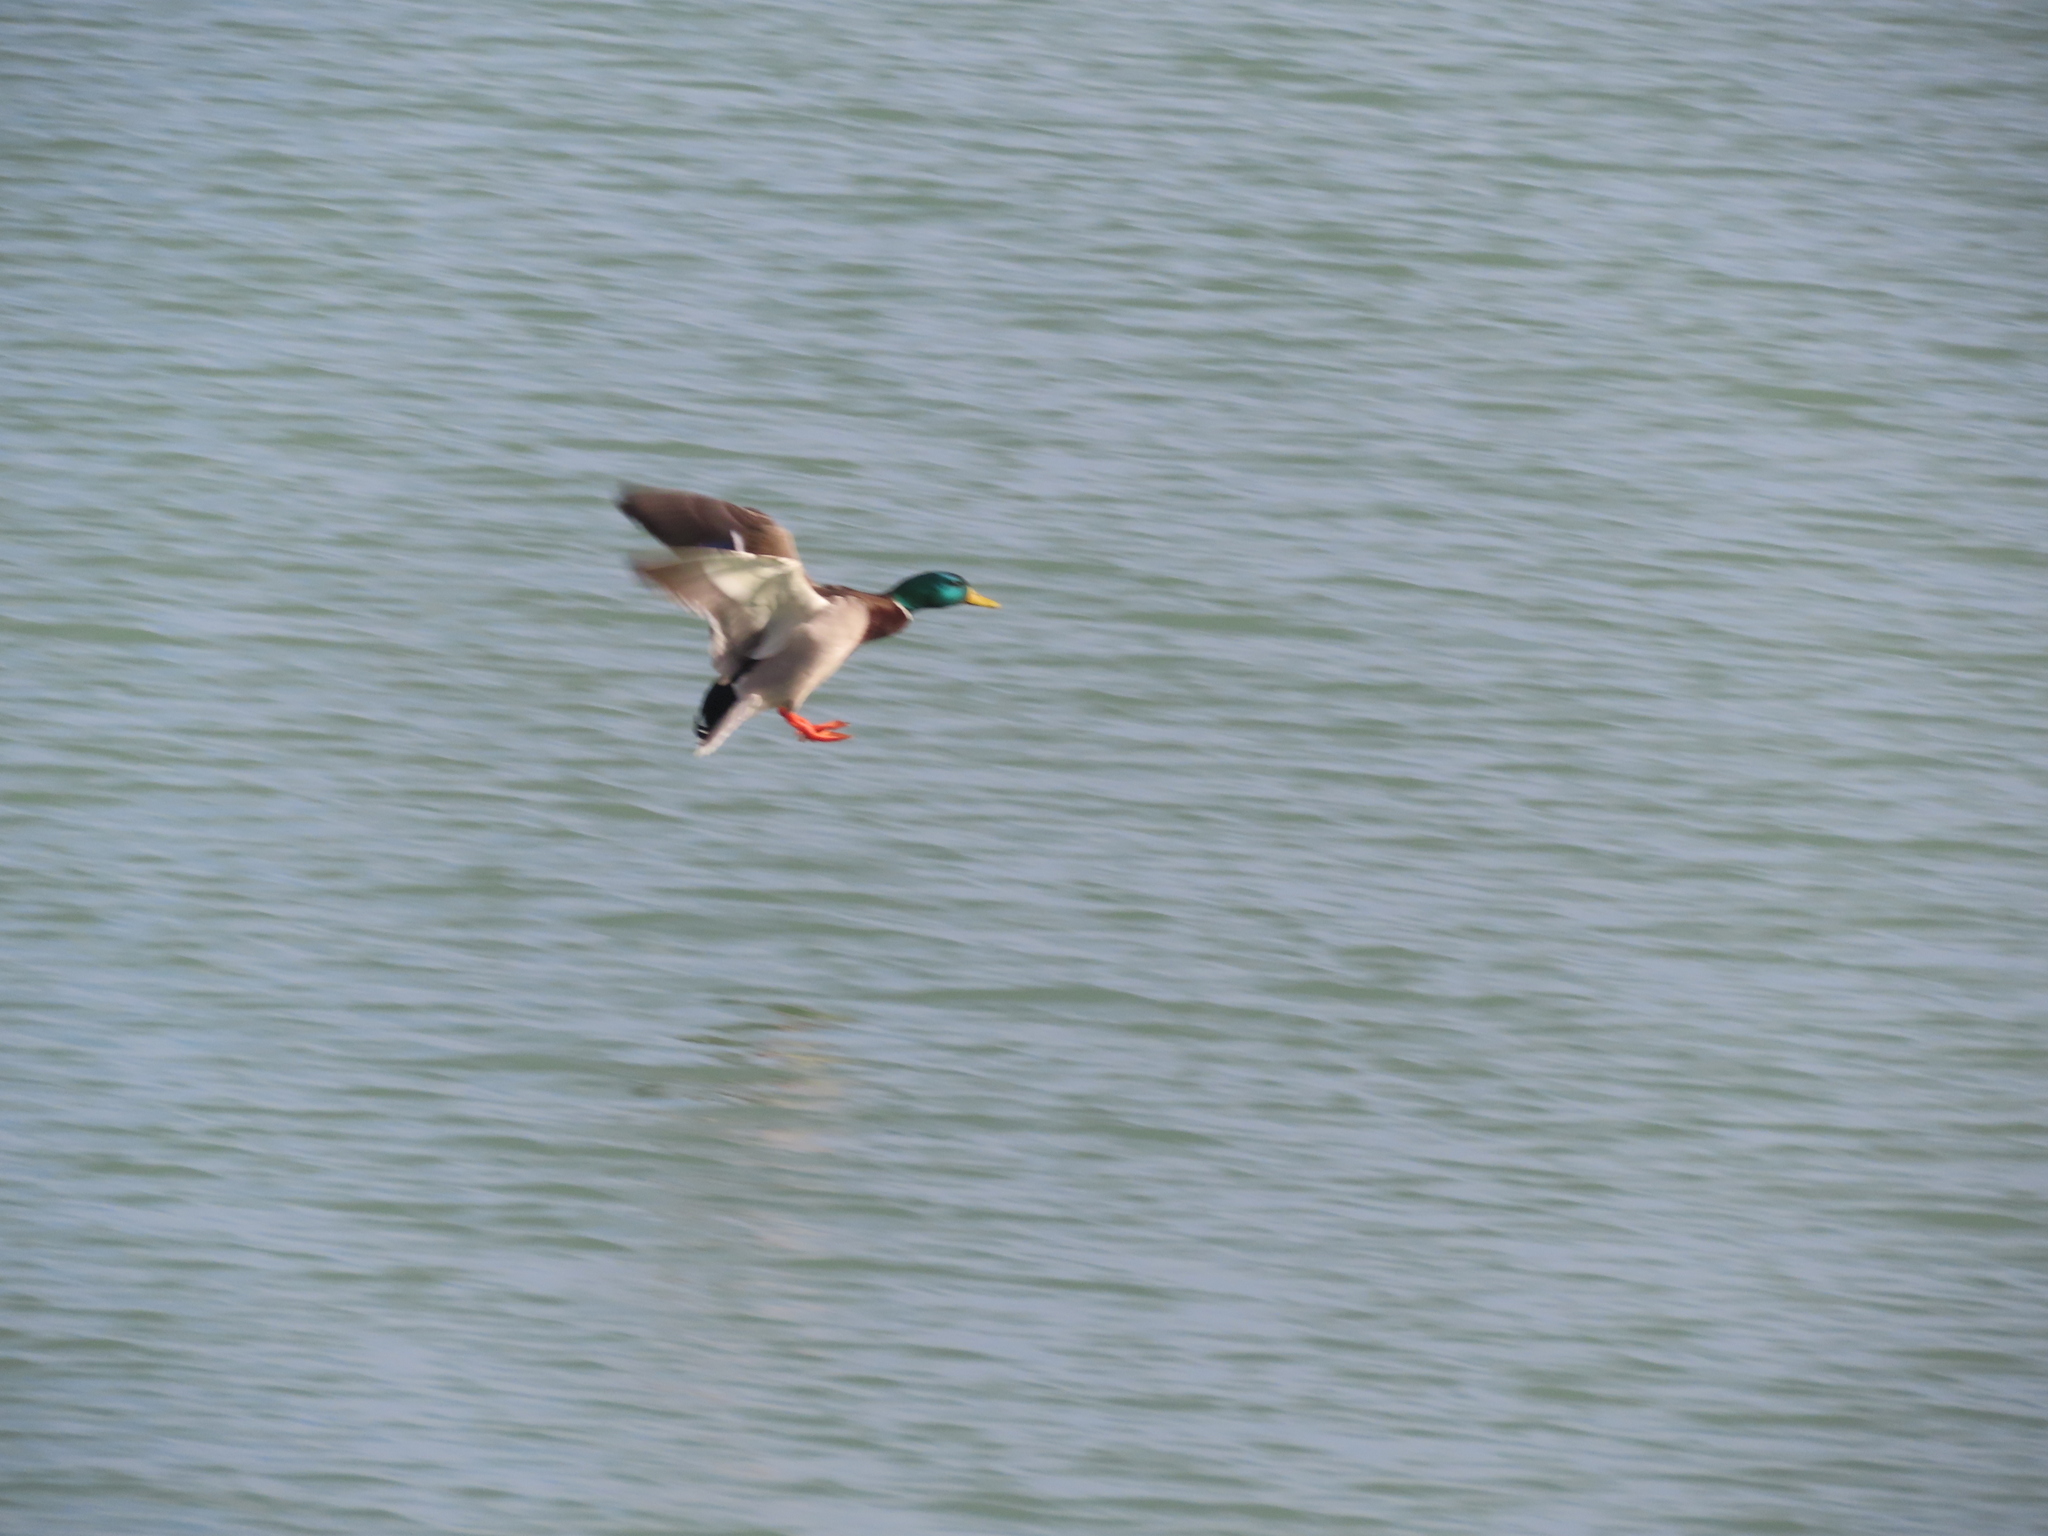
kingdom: Animalia
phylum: Chordata
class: Aves
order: Anseriformes
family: Anatidae
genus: Anas
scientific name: Anas platyrhynchos
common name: Mallard
